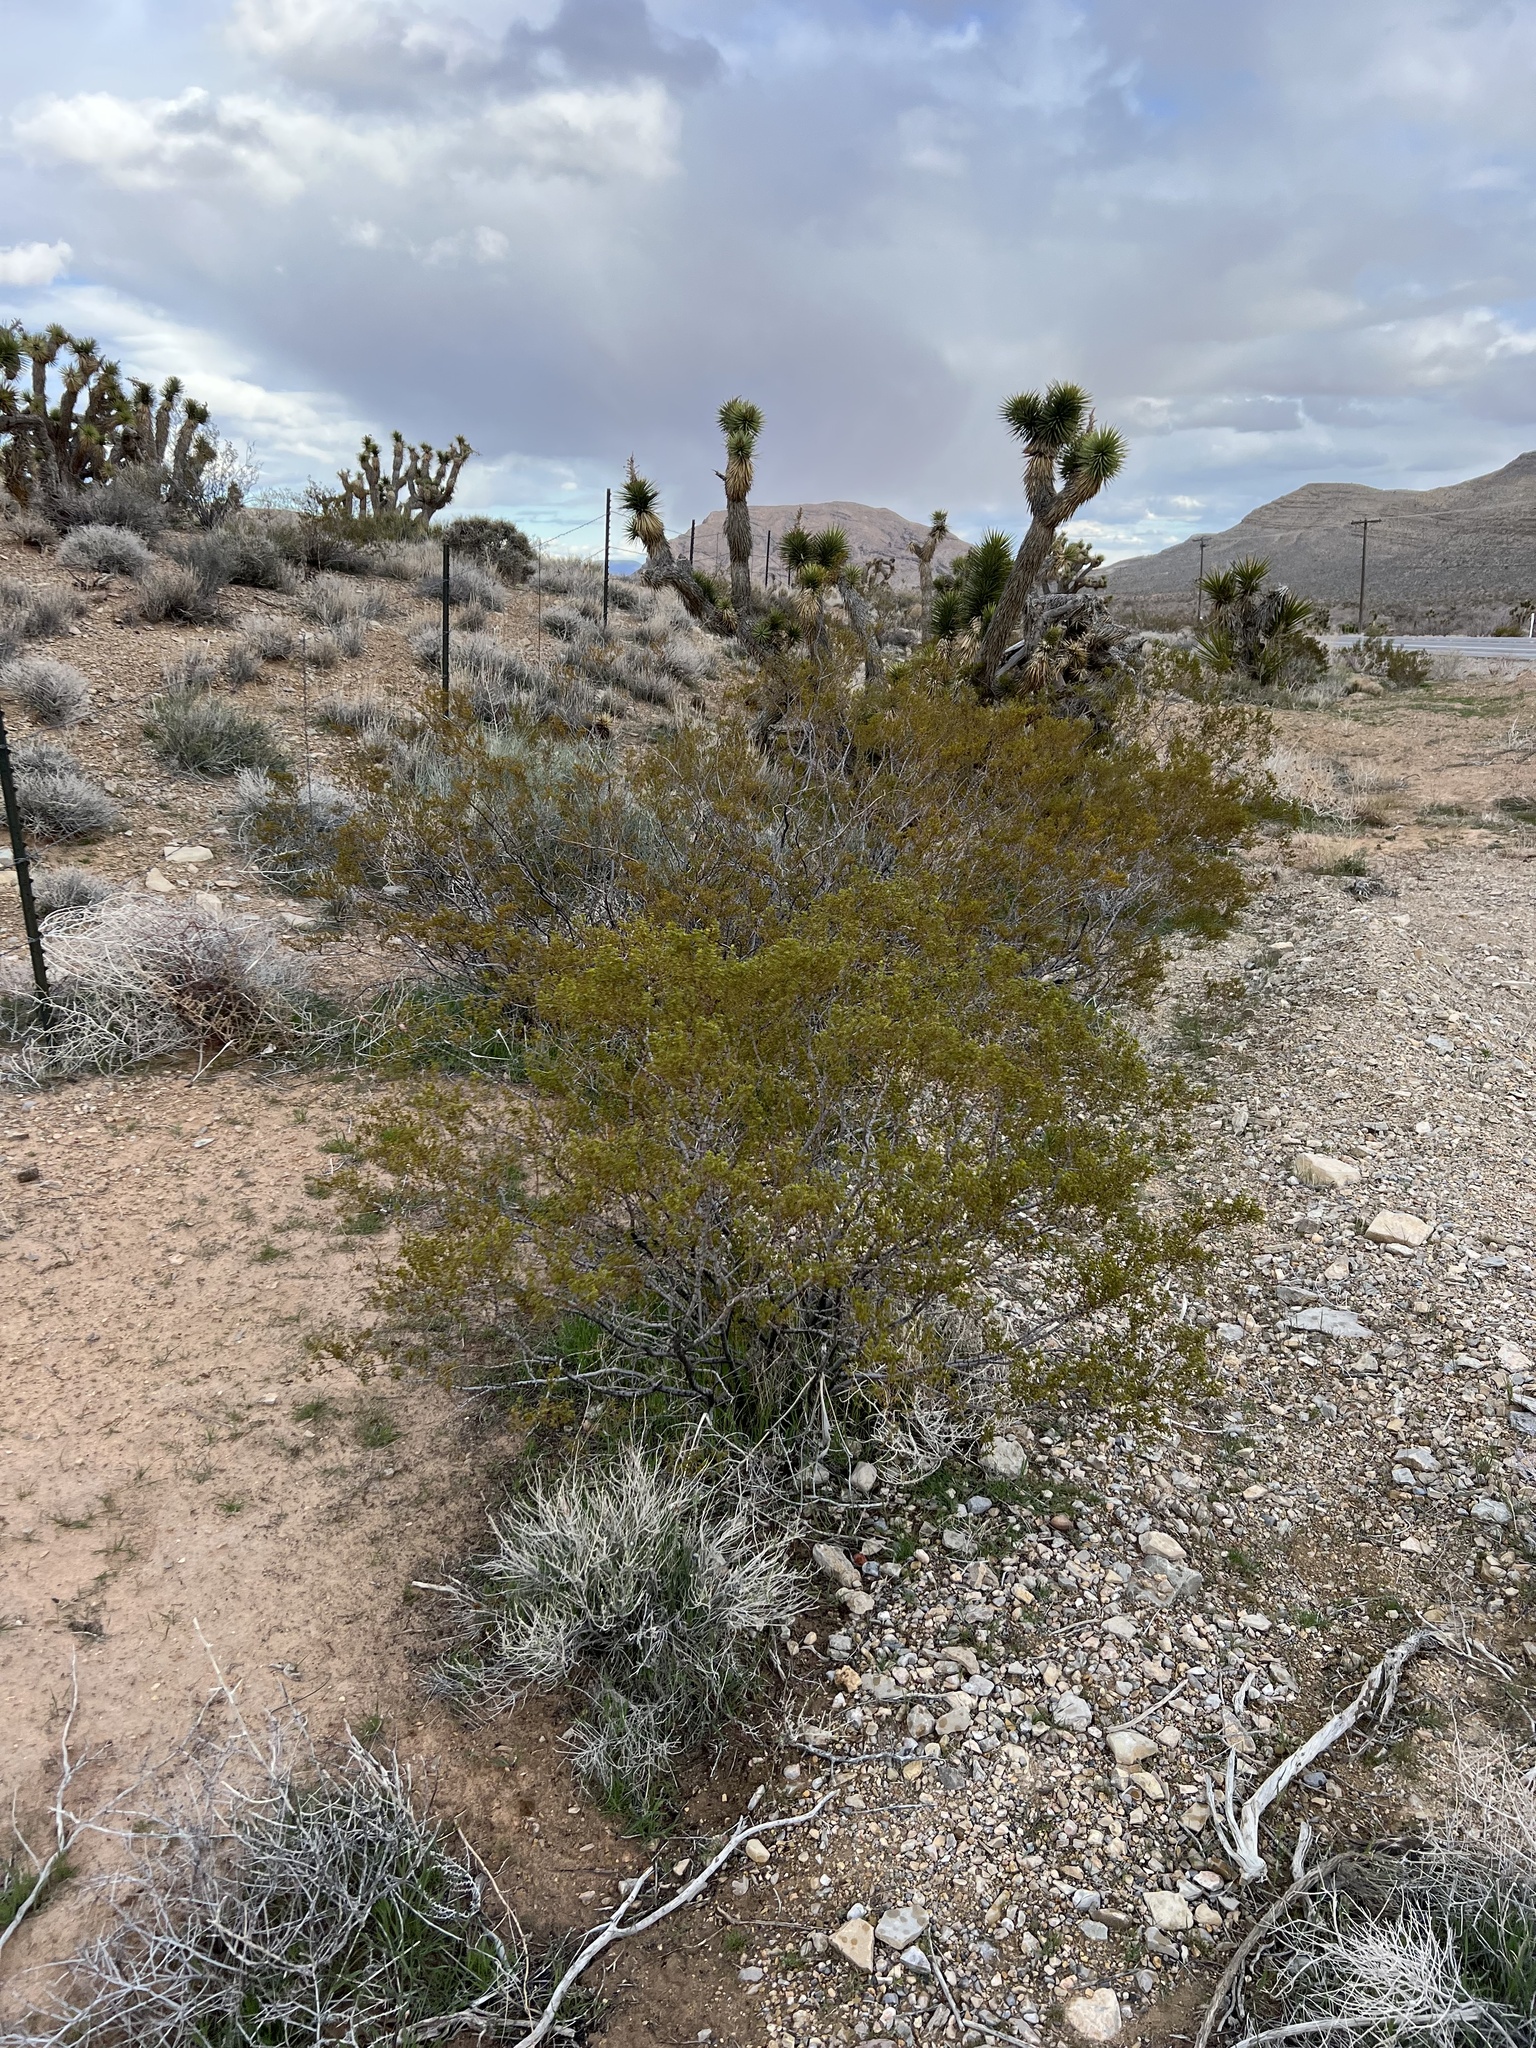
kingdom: Plantae
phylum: Tracheophyta
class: Magnoliopsida
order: Zygophyllales
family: Zygophyllaceae
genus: Larrea
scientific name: Larrea tridentata
